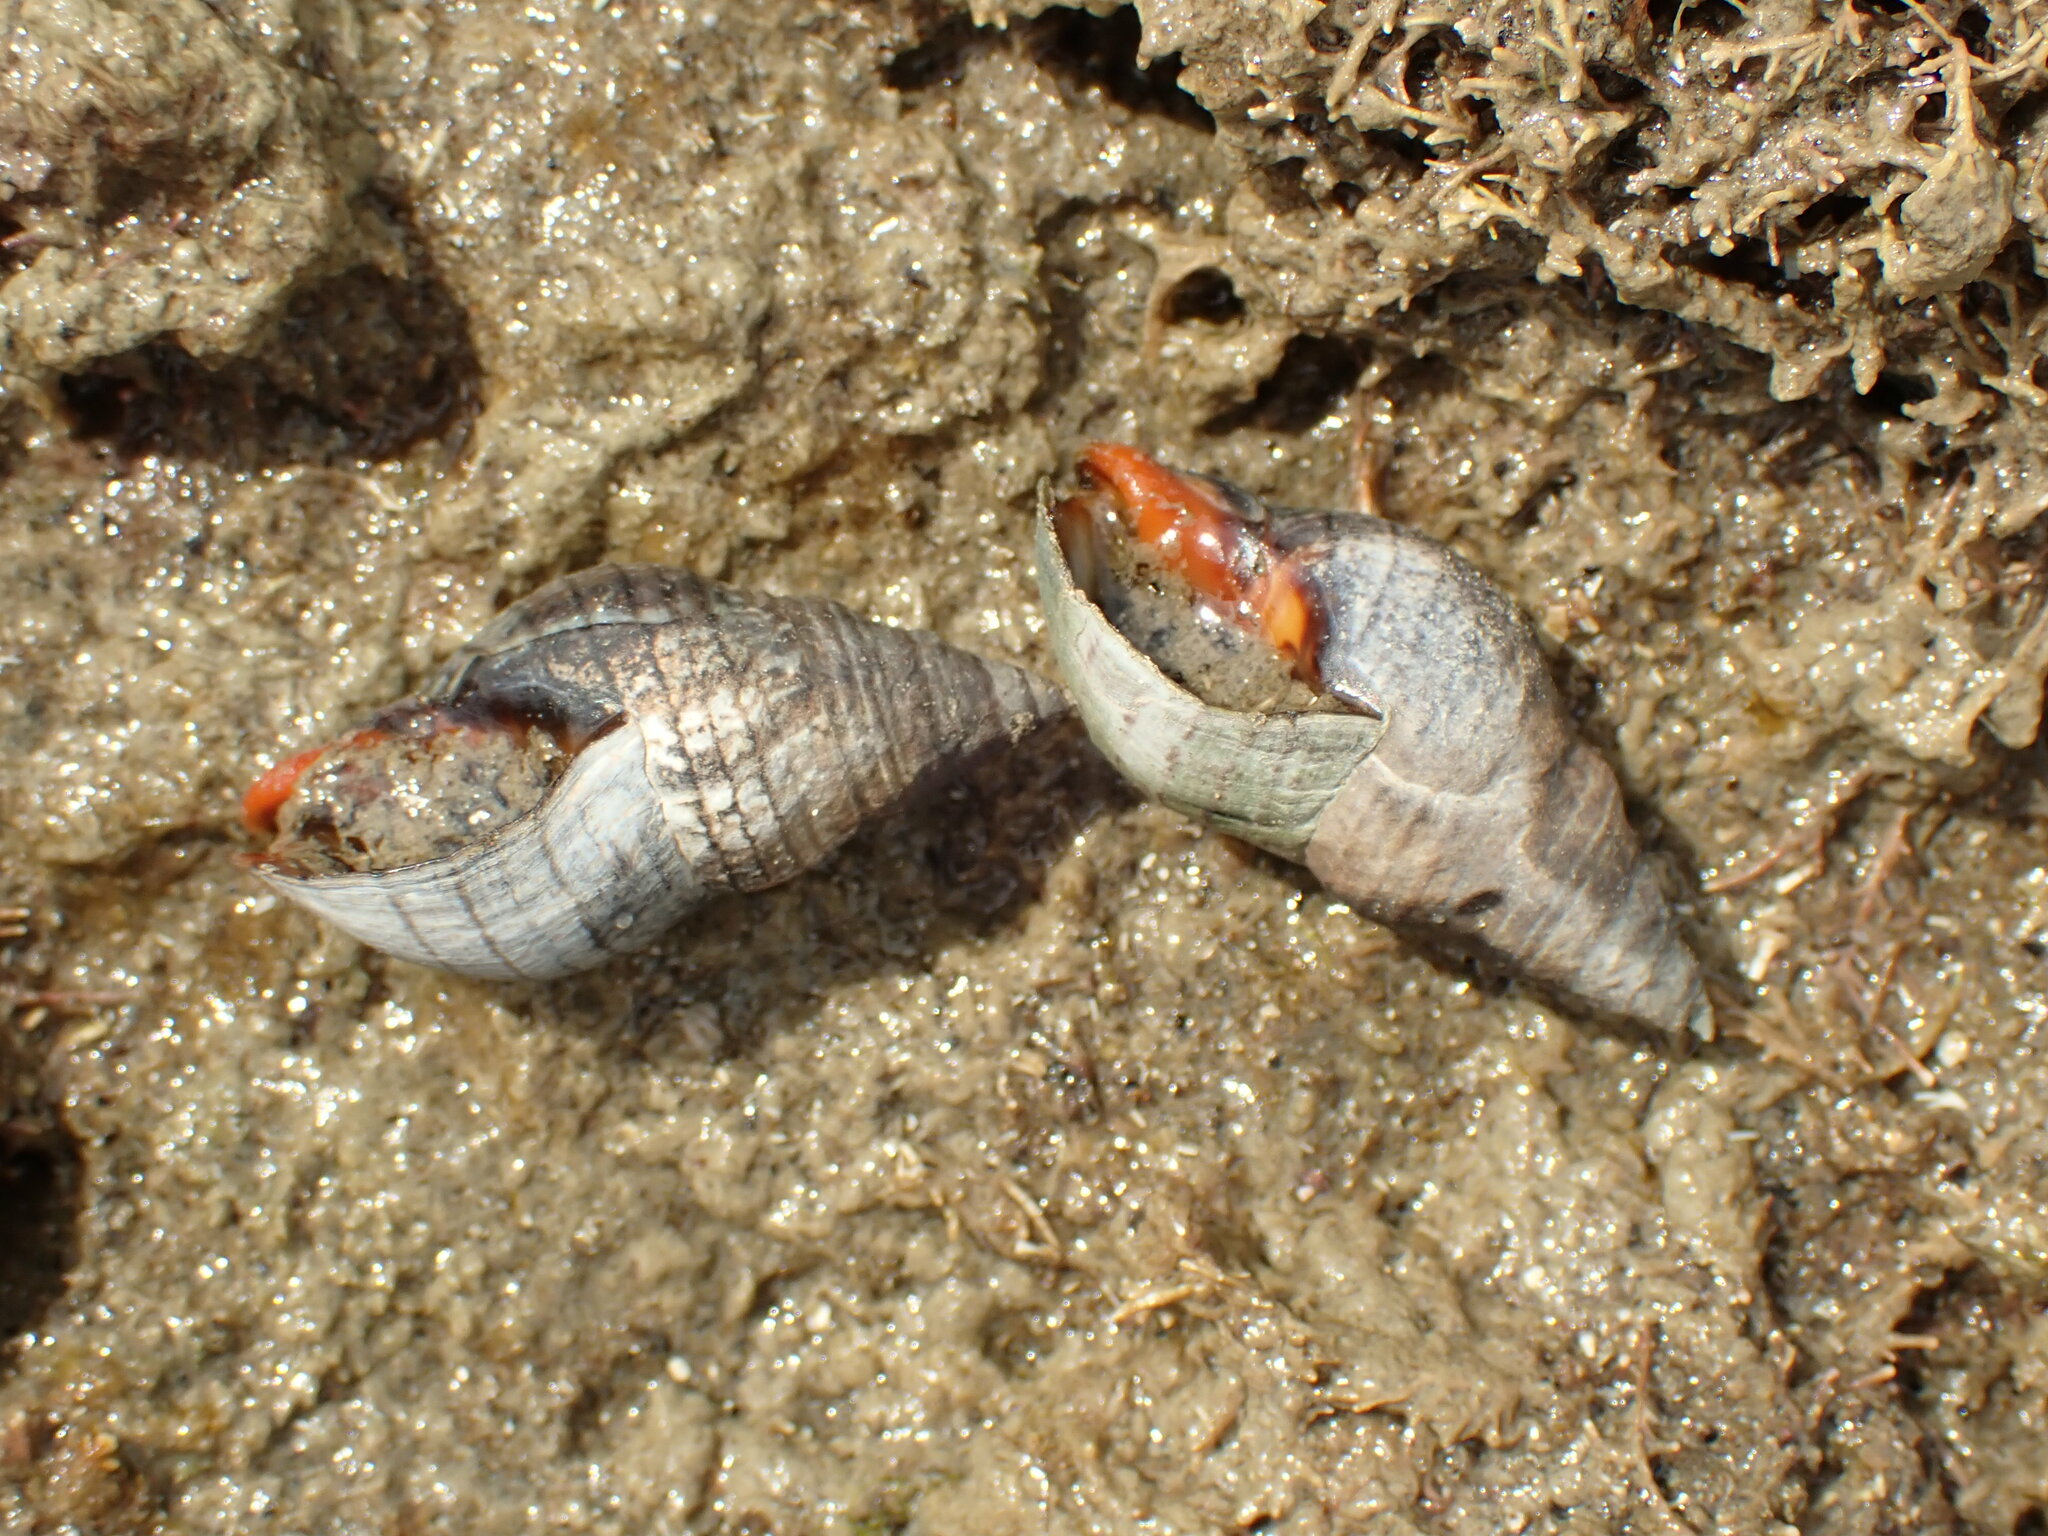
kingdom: Animalia
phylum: Mollusca
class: Gastropoda
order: Neogastropoda
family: Cominellidae
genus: Cominella
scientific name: Cominella virgata
